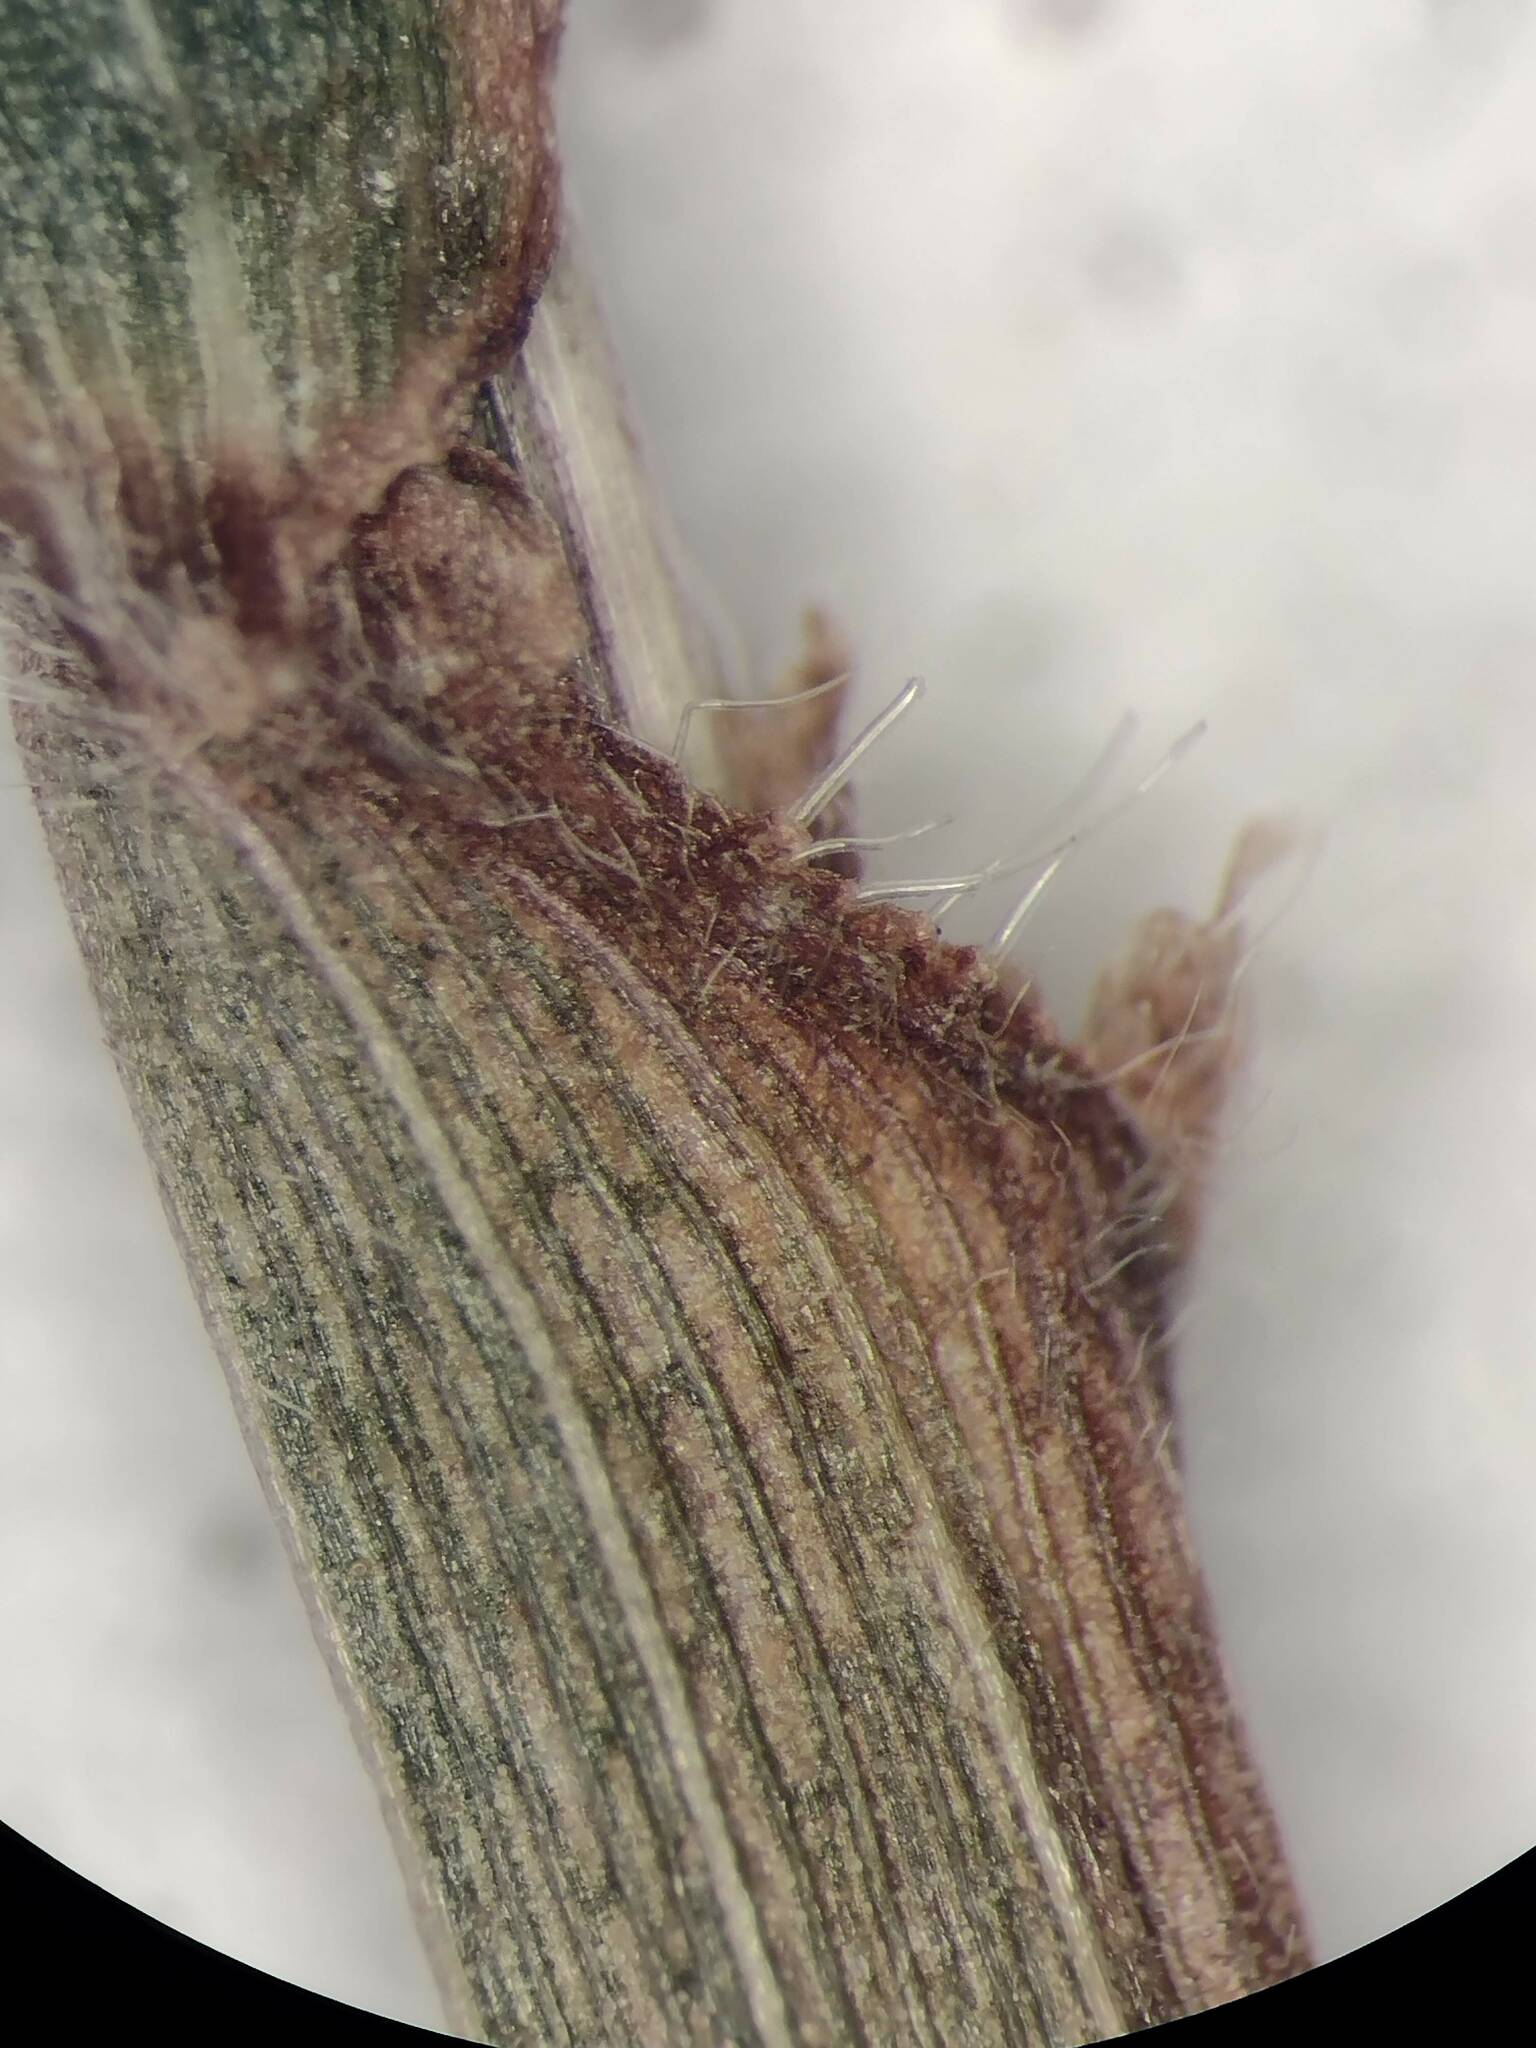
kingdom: Plantae
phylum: Tracheophyta
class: Liliopsida
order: Poales
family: Poaceae
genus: Paspalum
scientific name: Paspalum langei
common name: Rusty-seed paspalum
